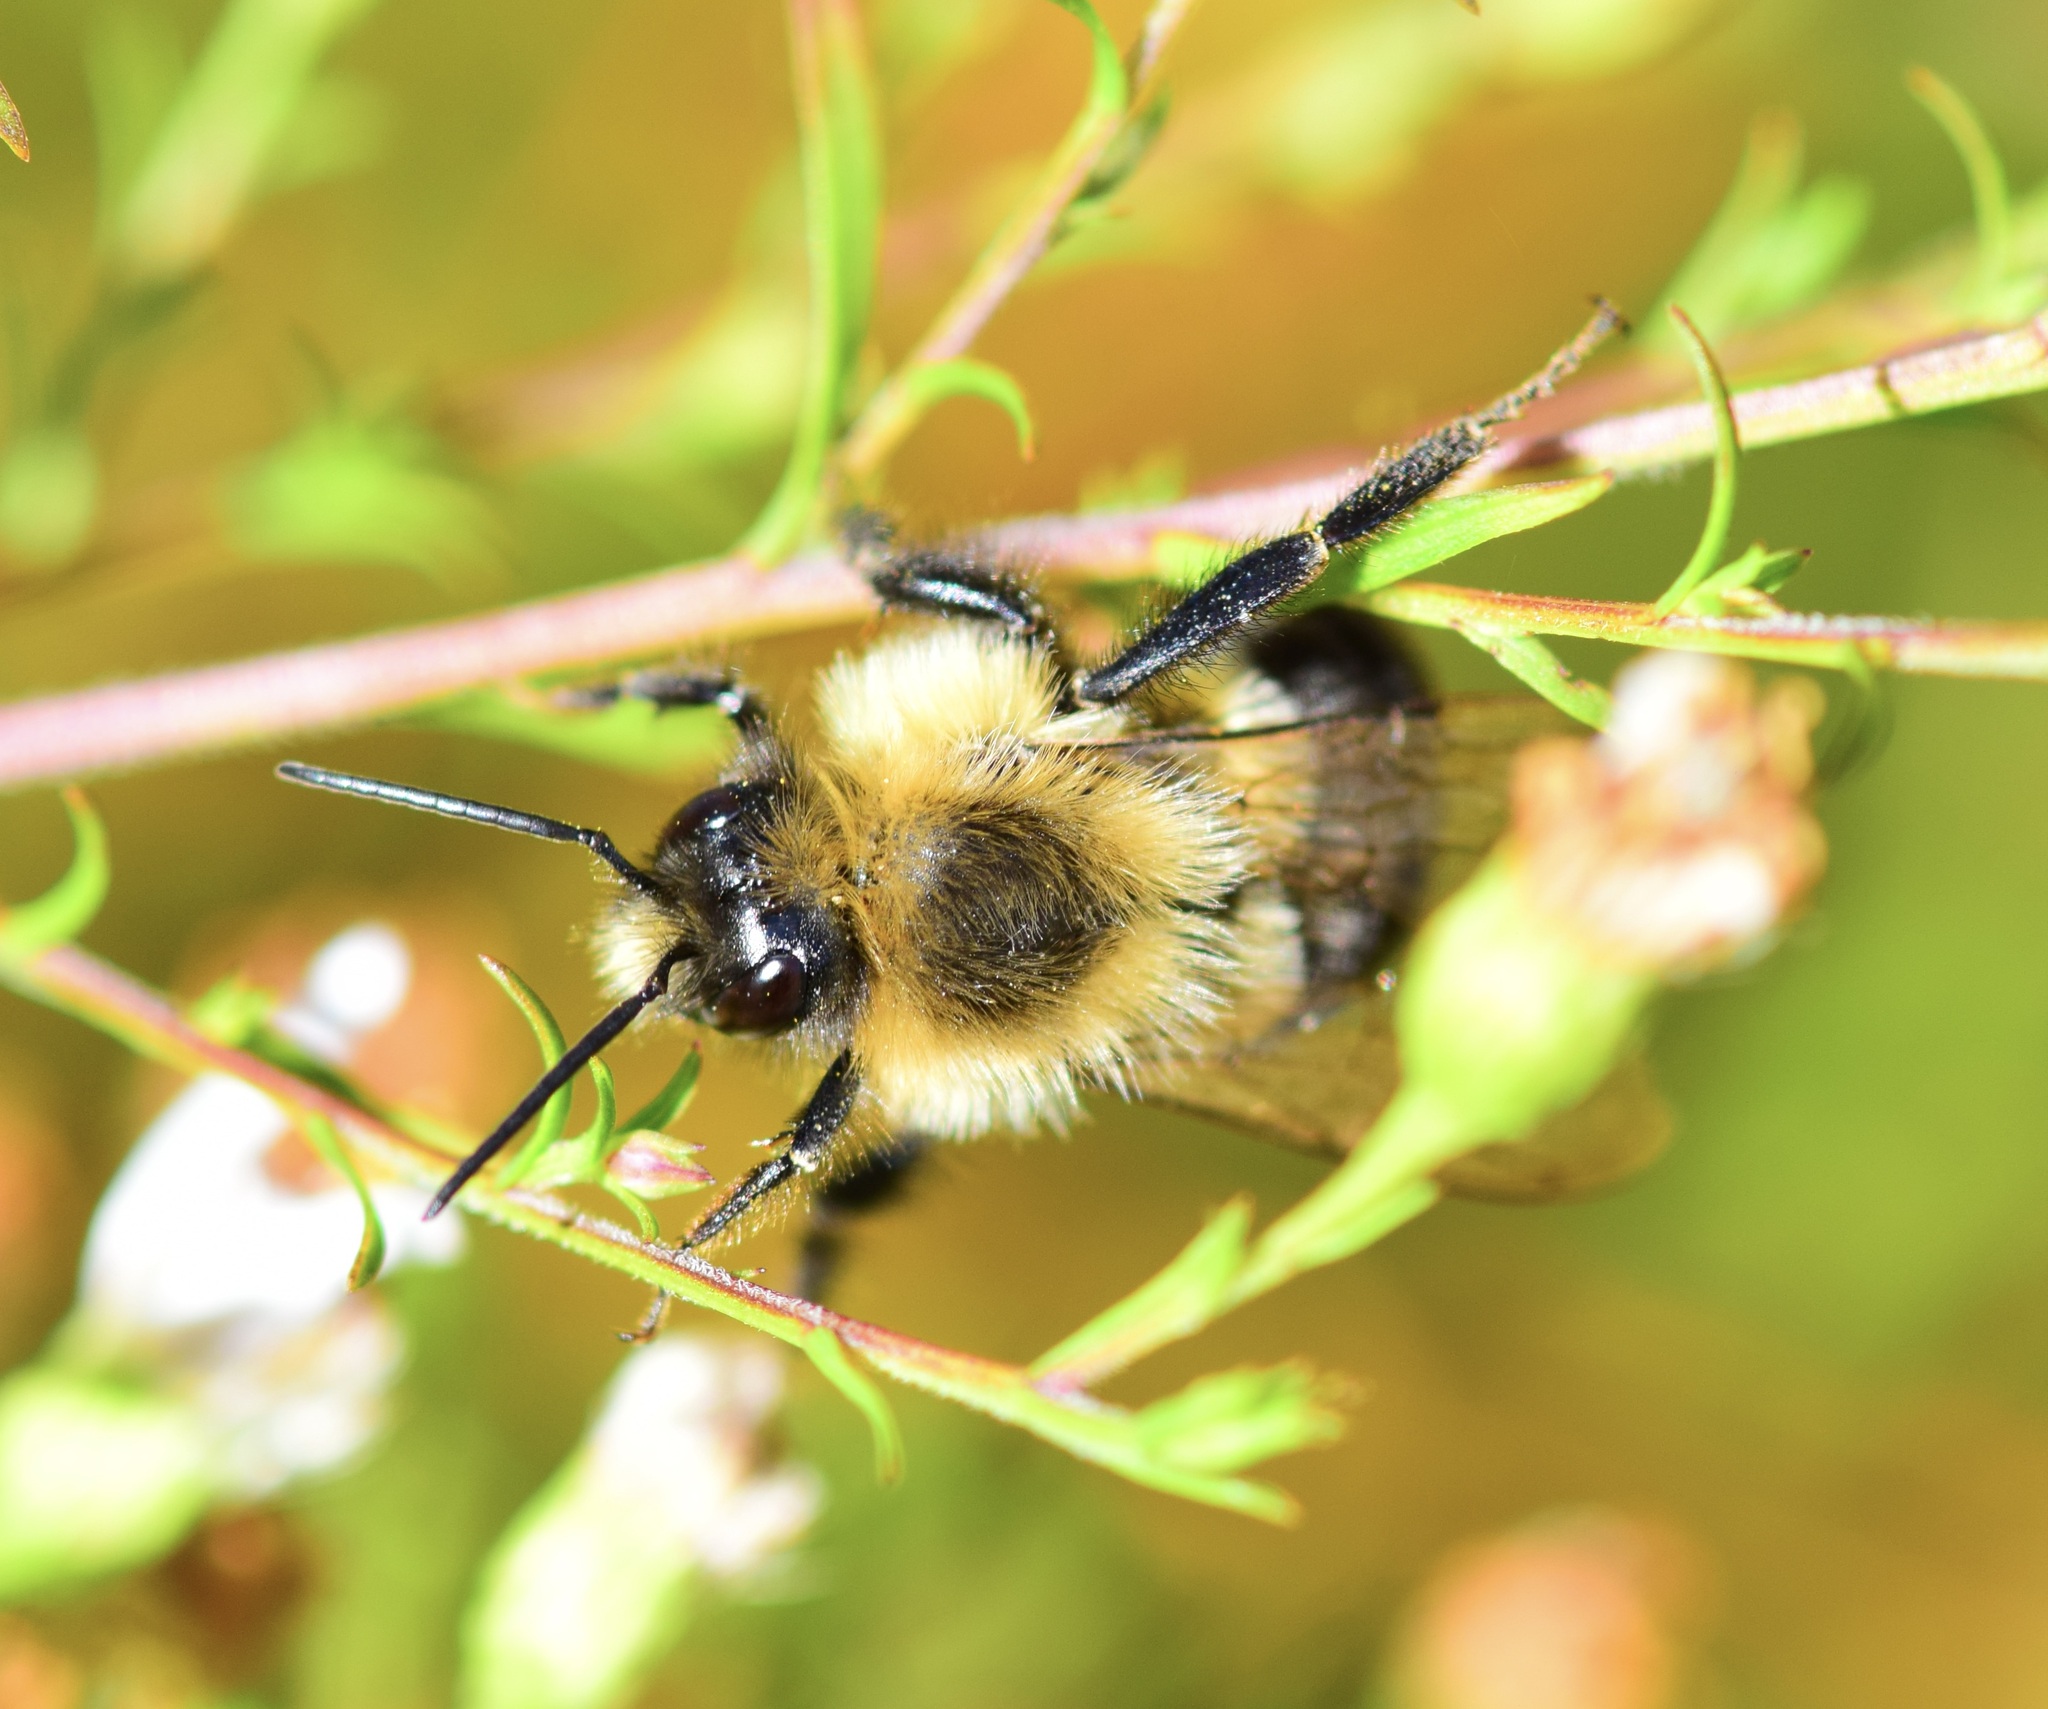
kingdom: Animalia
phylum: Arthropoda
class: Insecta
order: Hymenoptera
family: Apidae
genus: Bombus
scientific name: Bombus impatiens
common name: Common eastern bumble bee
